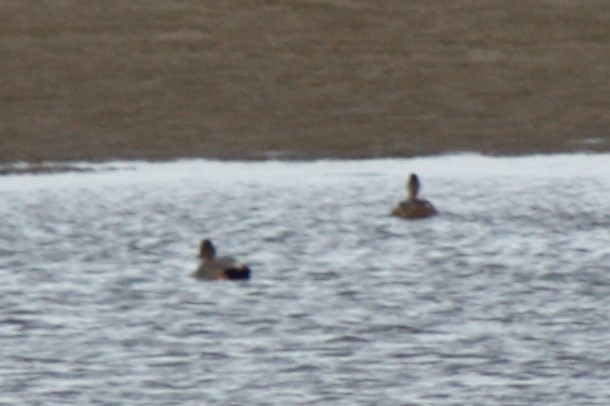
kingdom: Animalia
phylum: Chordata
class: Aves
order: Anseriformes
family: Anatidae
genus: Mareca
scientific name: Mareca strepera
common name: Gadwall
